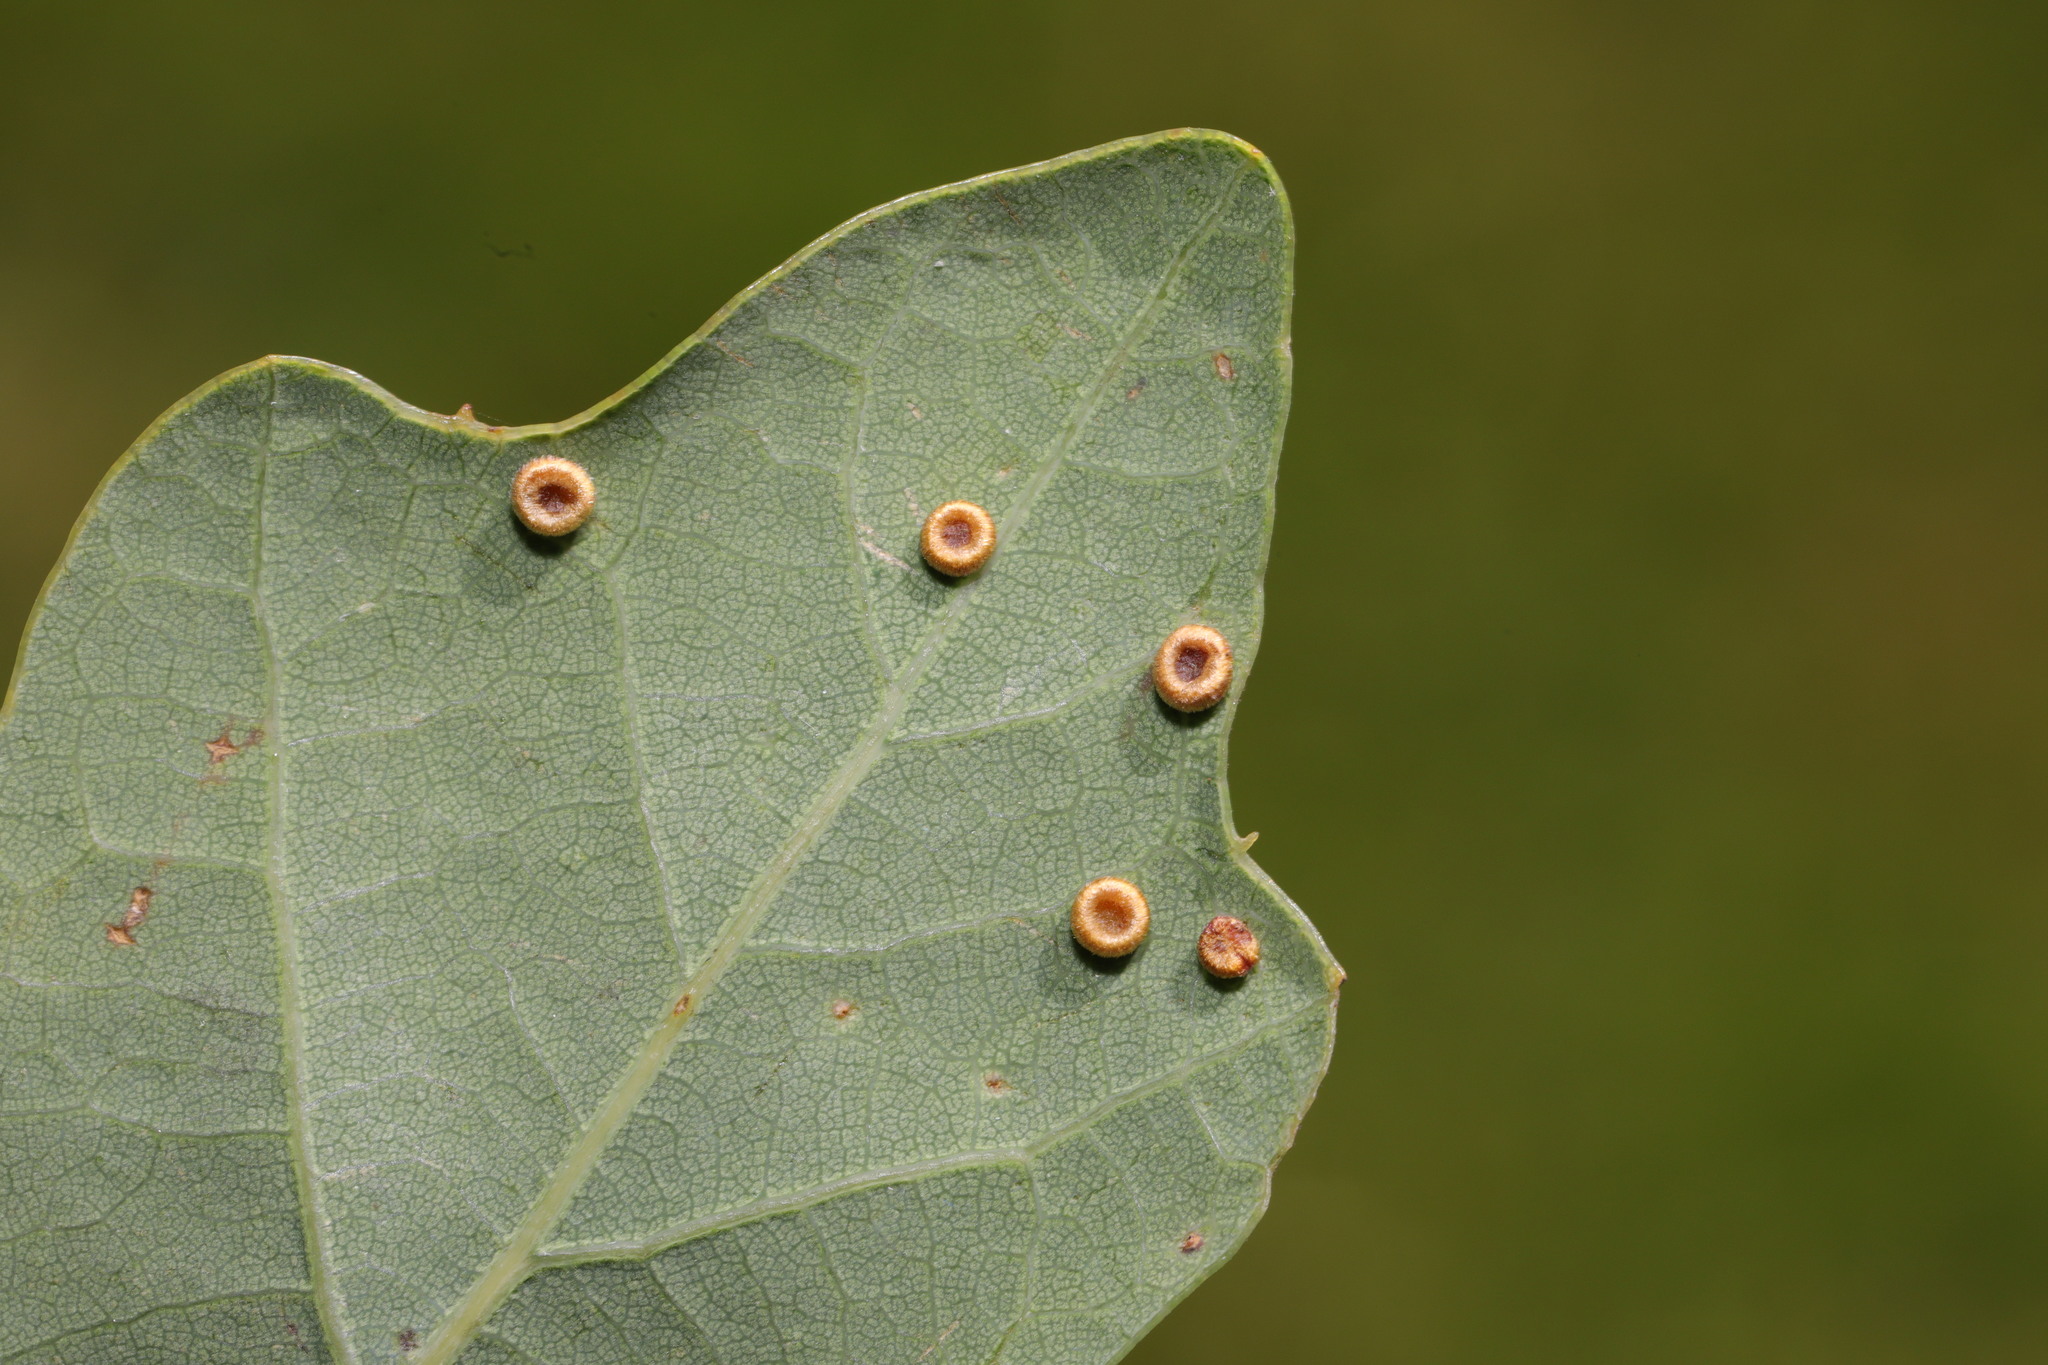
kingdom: Animalia
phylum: Arthropoda
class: Insecta
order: Hymenoptera
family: Cynipidae
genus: Neuroterus
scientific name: Neuroterus numismalis
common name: Silk-button spangle gall
